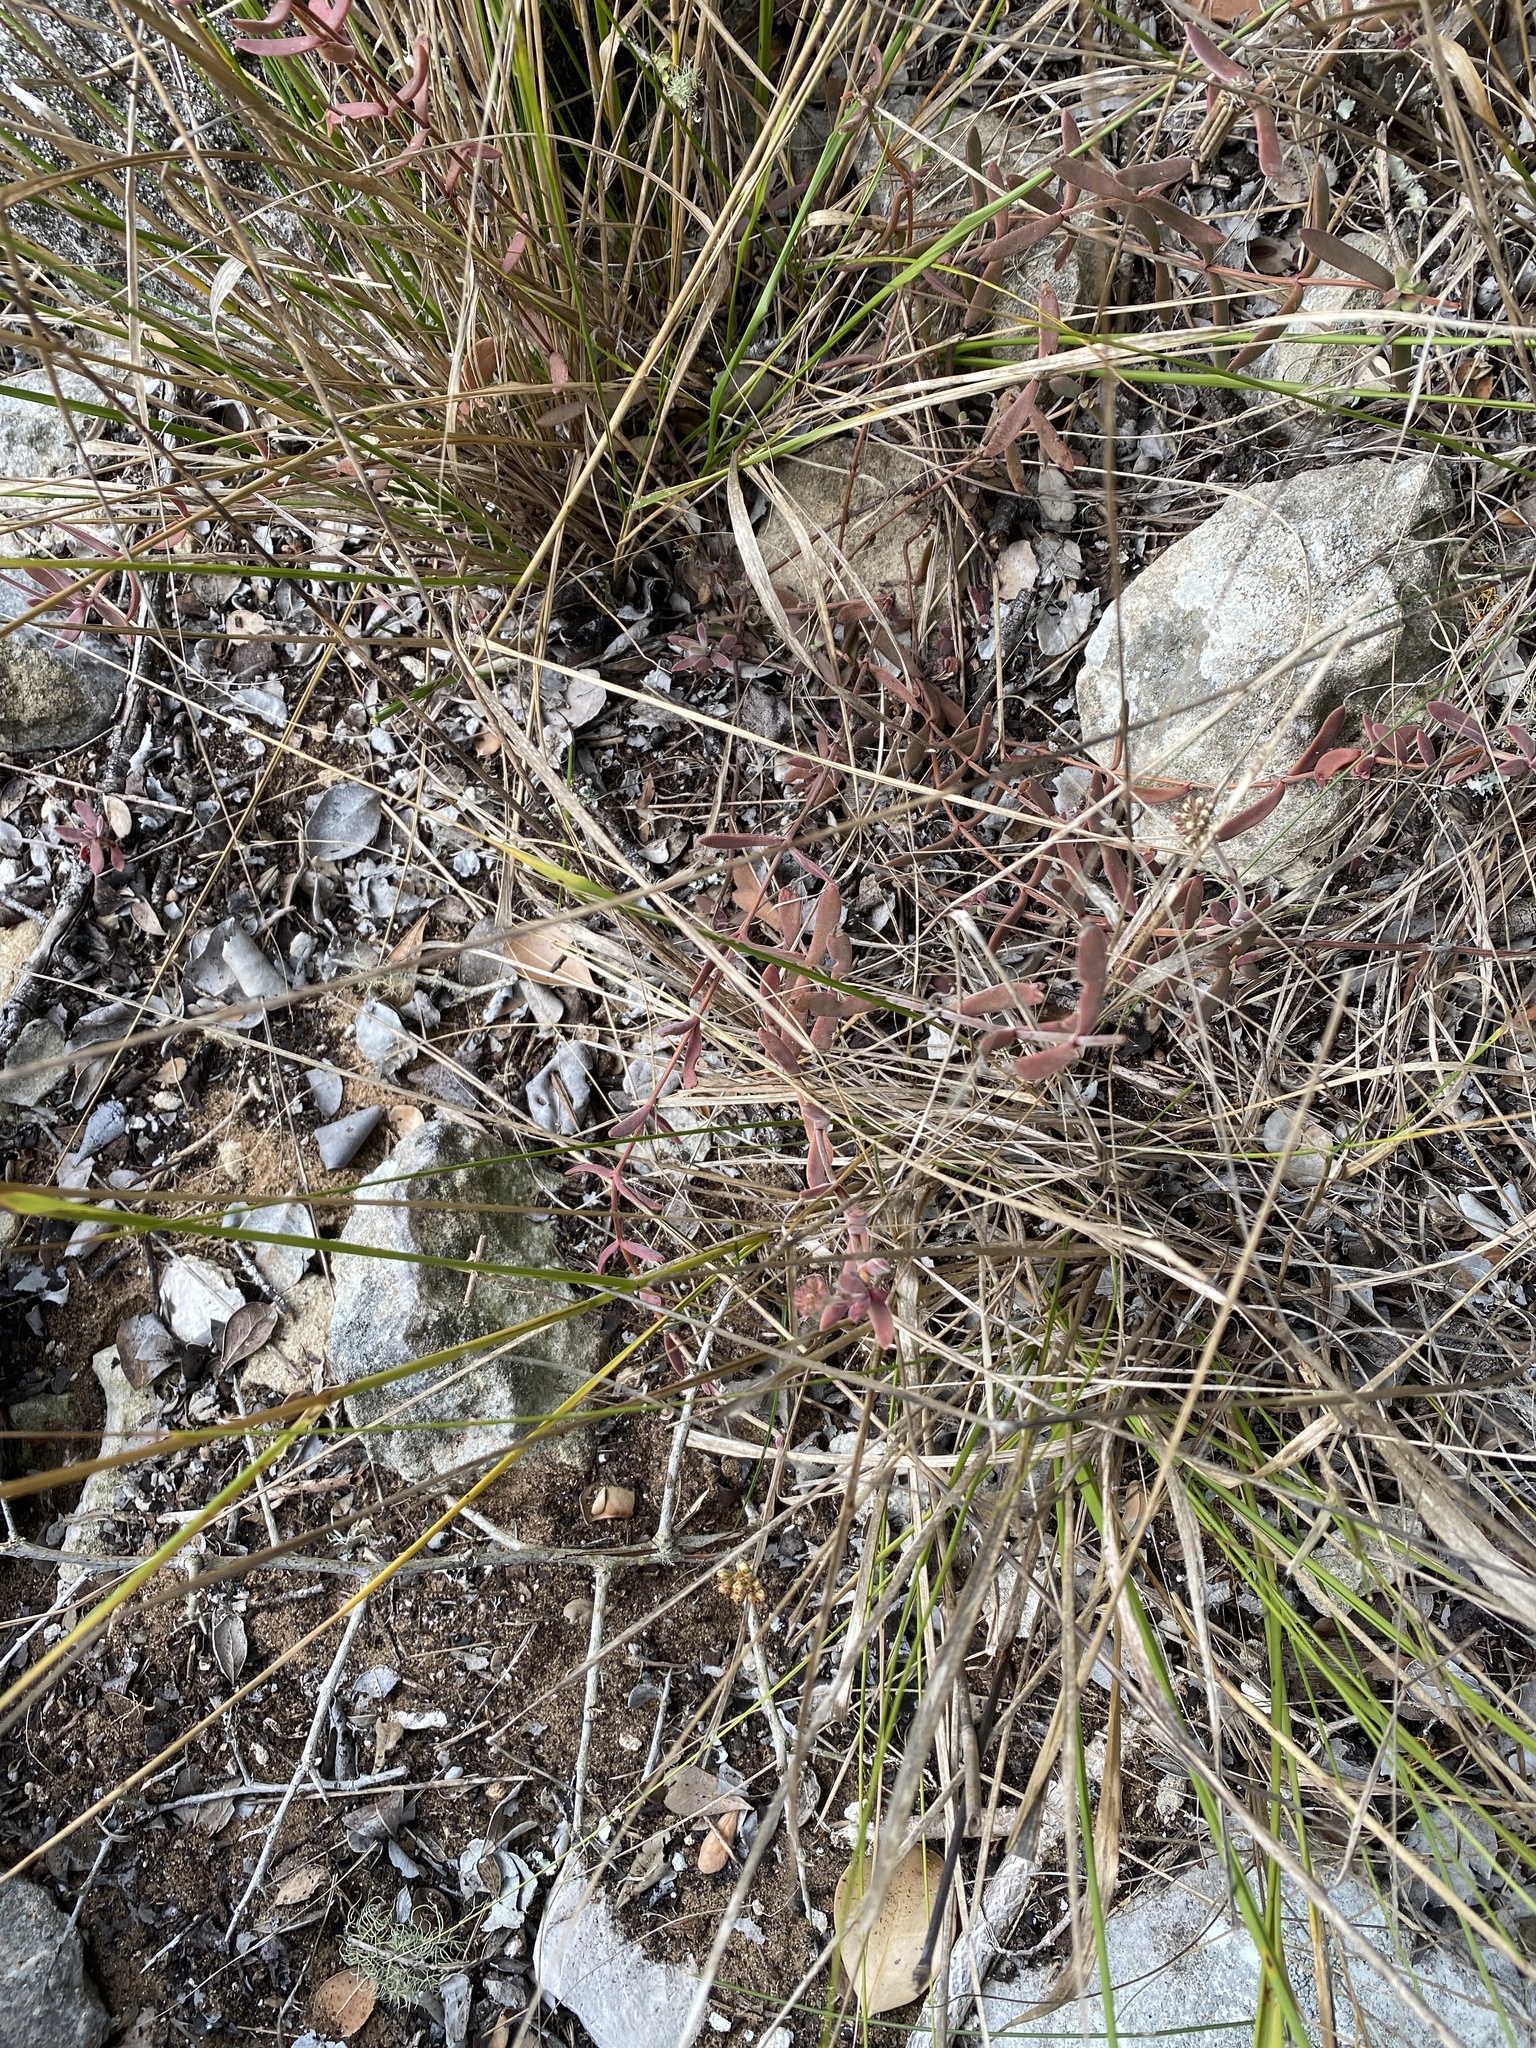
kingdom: Plantae
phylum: Tracheophyta
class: Magnoliopsida
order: Saxifragales
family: Crassulaceae
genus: Crassula
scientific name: Crassula pubescens
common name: Jersey pigmyweed
